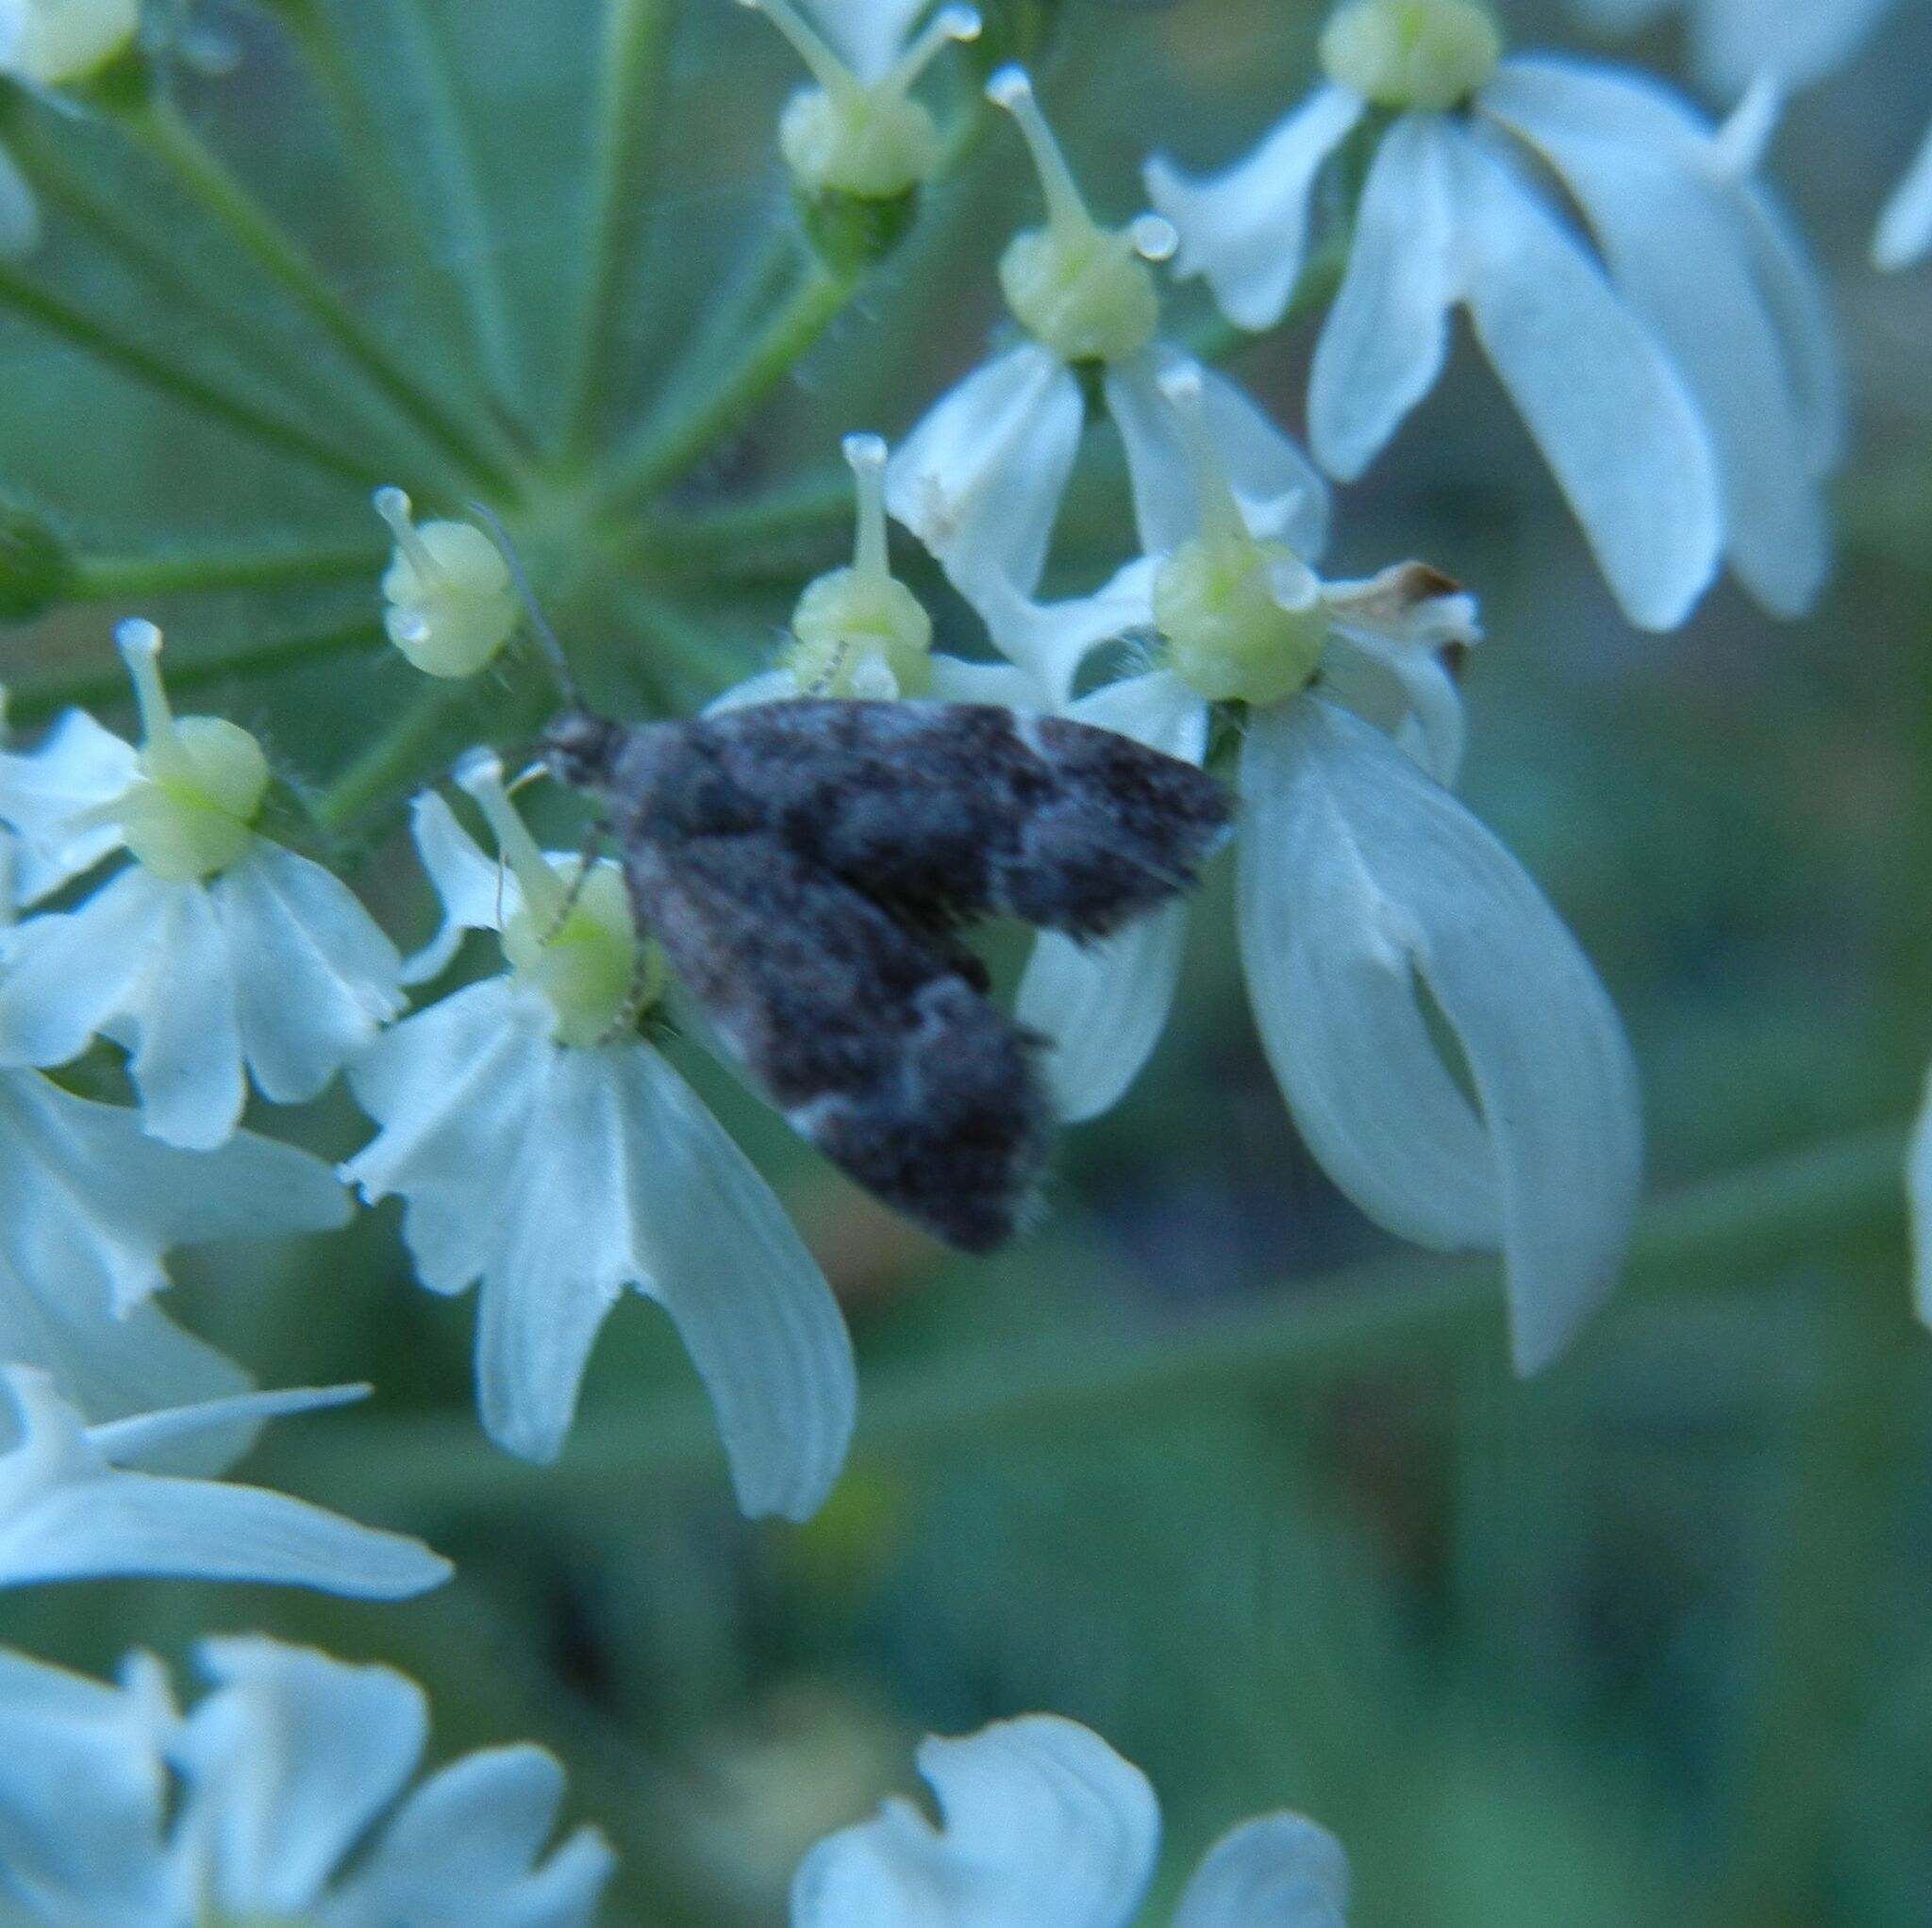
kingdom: Animalia
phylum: Arthropoda
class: Insecta
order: Lepidoptera
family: Choreutidae
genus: Anthophila
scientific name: Anthophila fabriciana
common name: Nettle-tap
